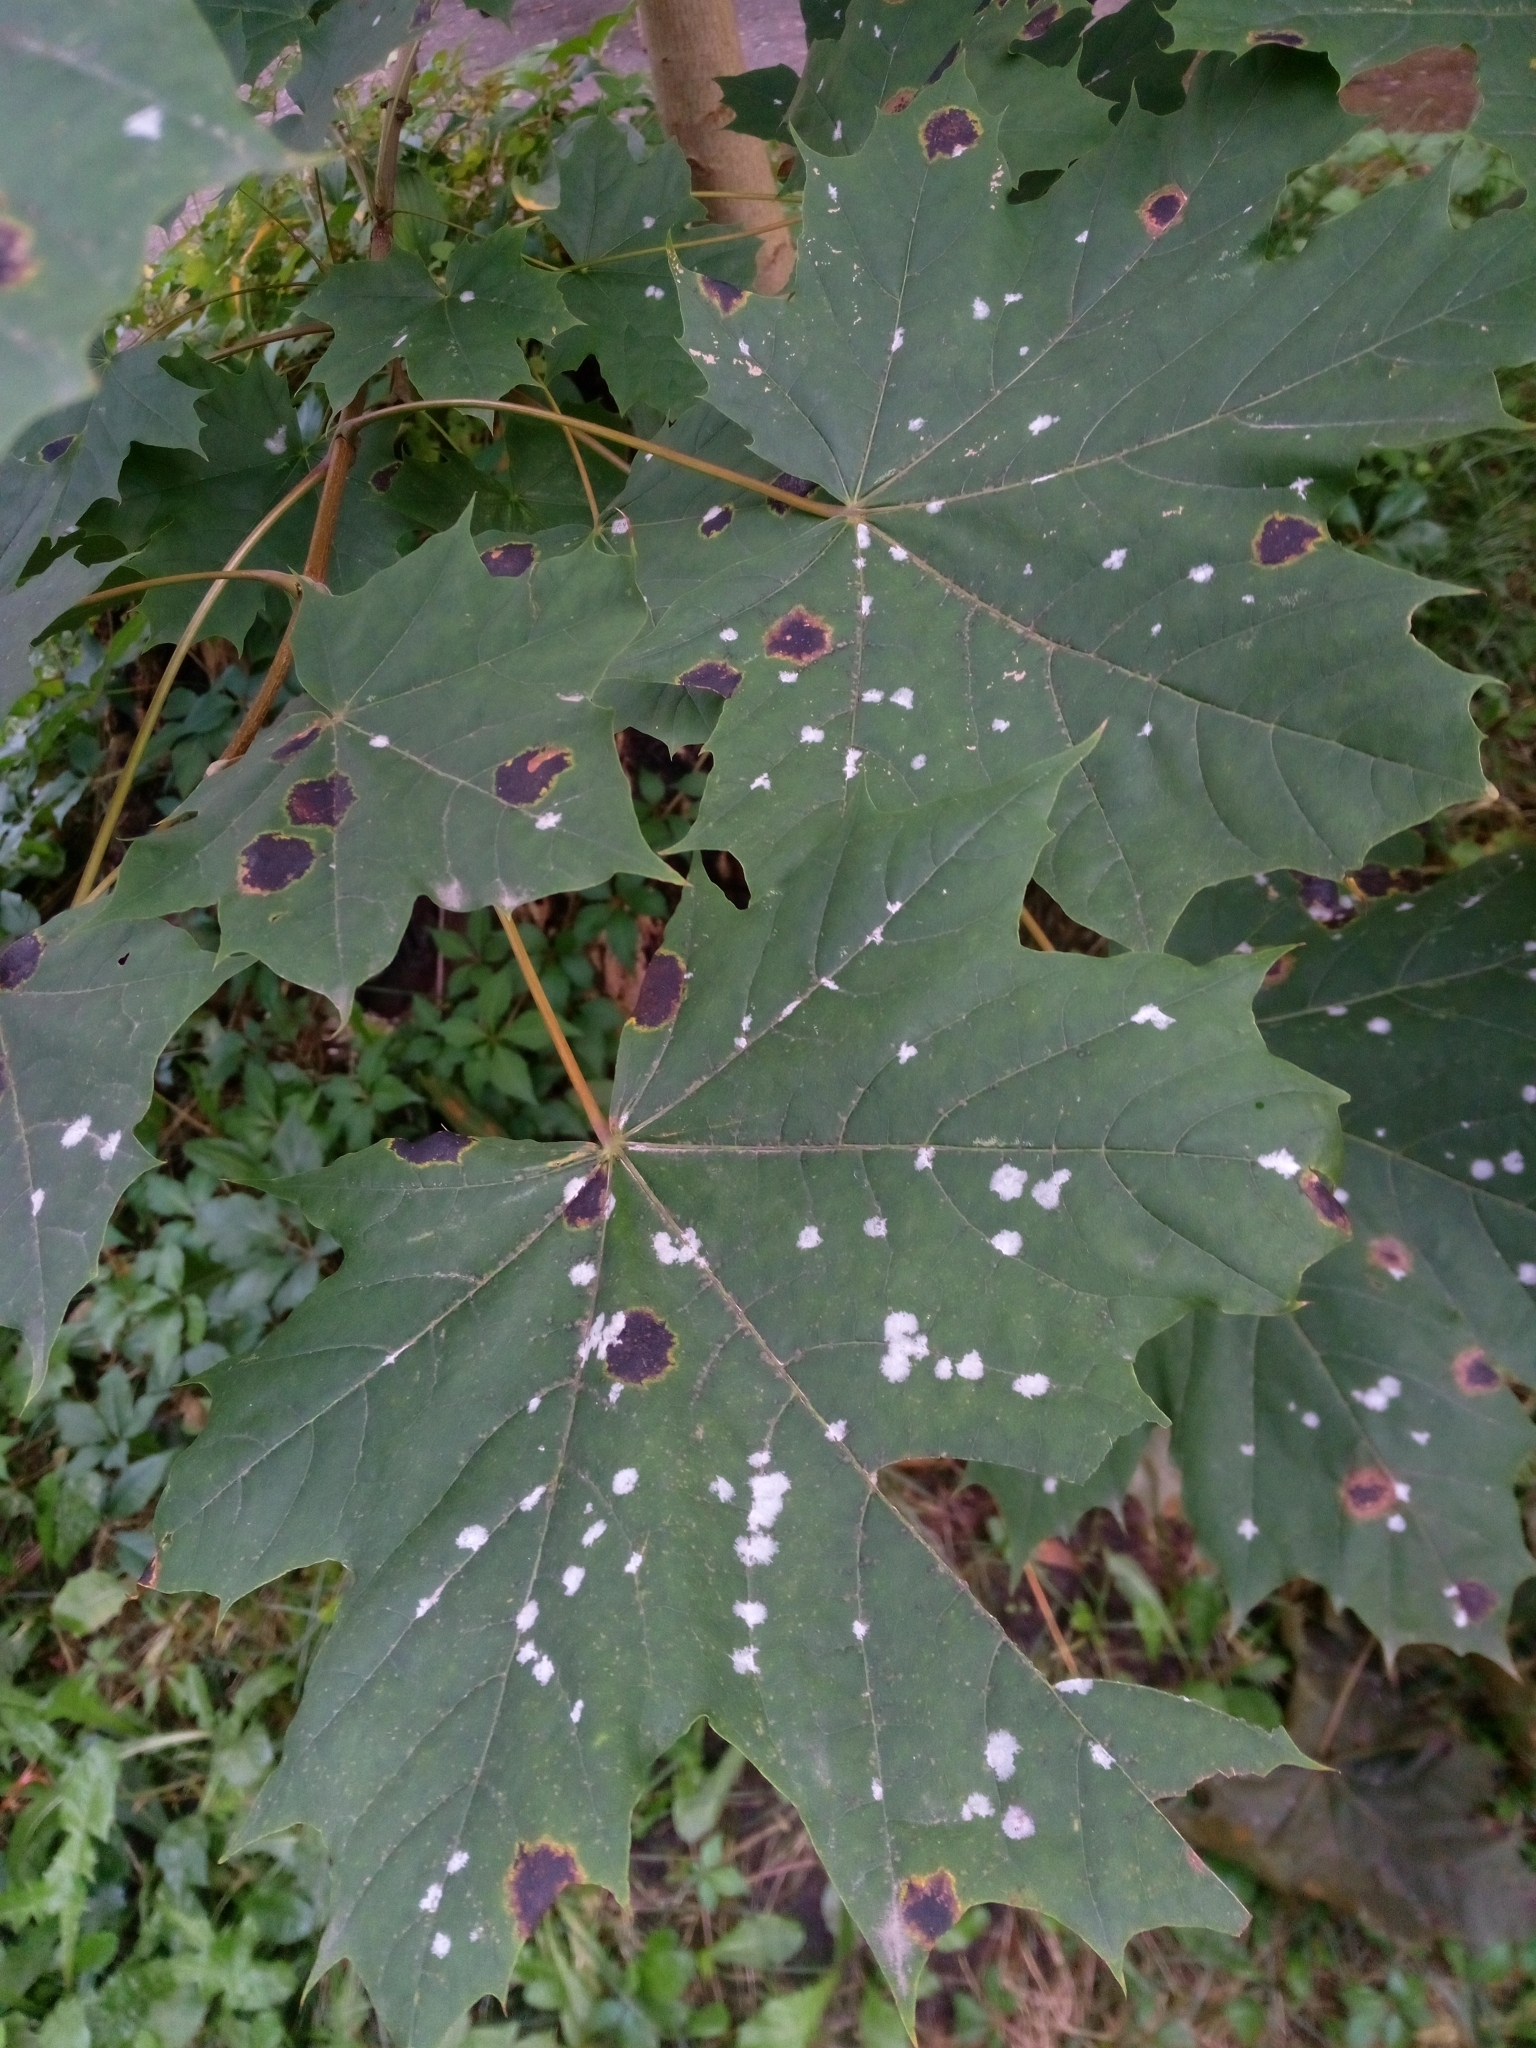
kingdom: Fungi
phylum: Ascomycota
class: Leotiomycetes
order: Rhytismatales
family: Rhytismataceae
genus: Rhytisma
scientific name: Rhytisma acerinum
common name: European tar spot
